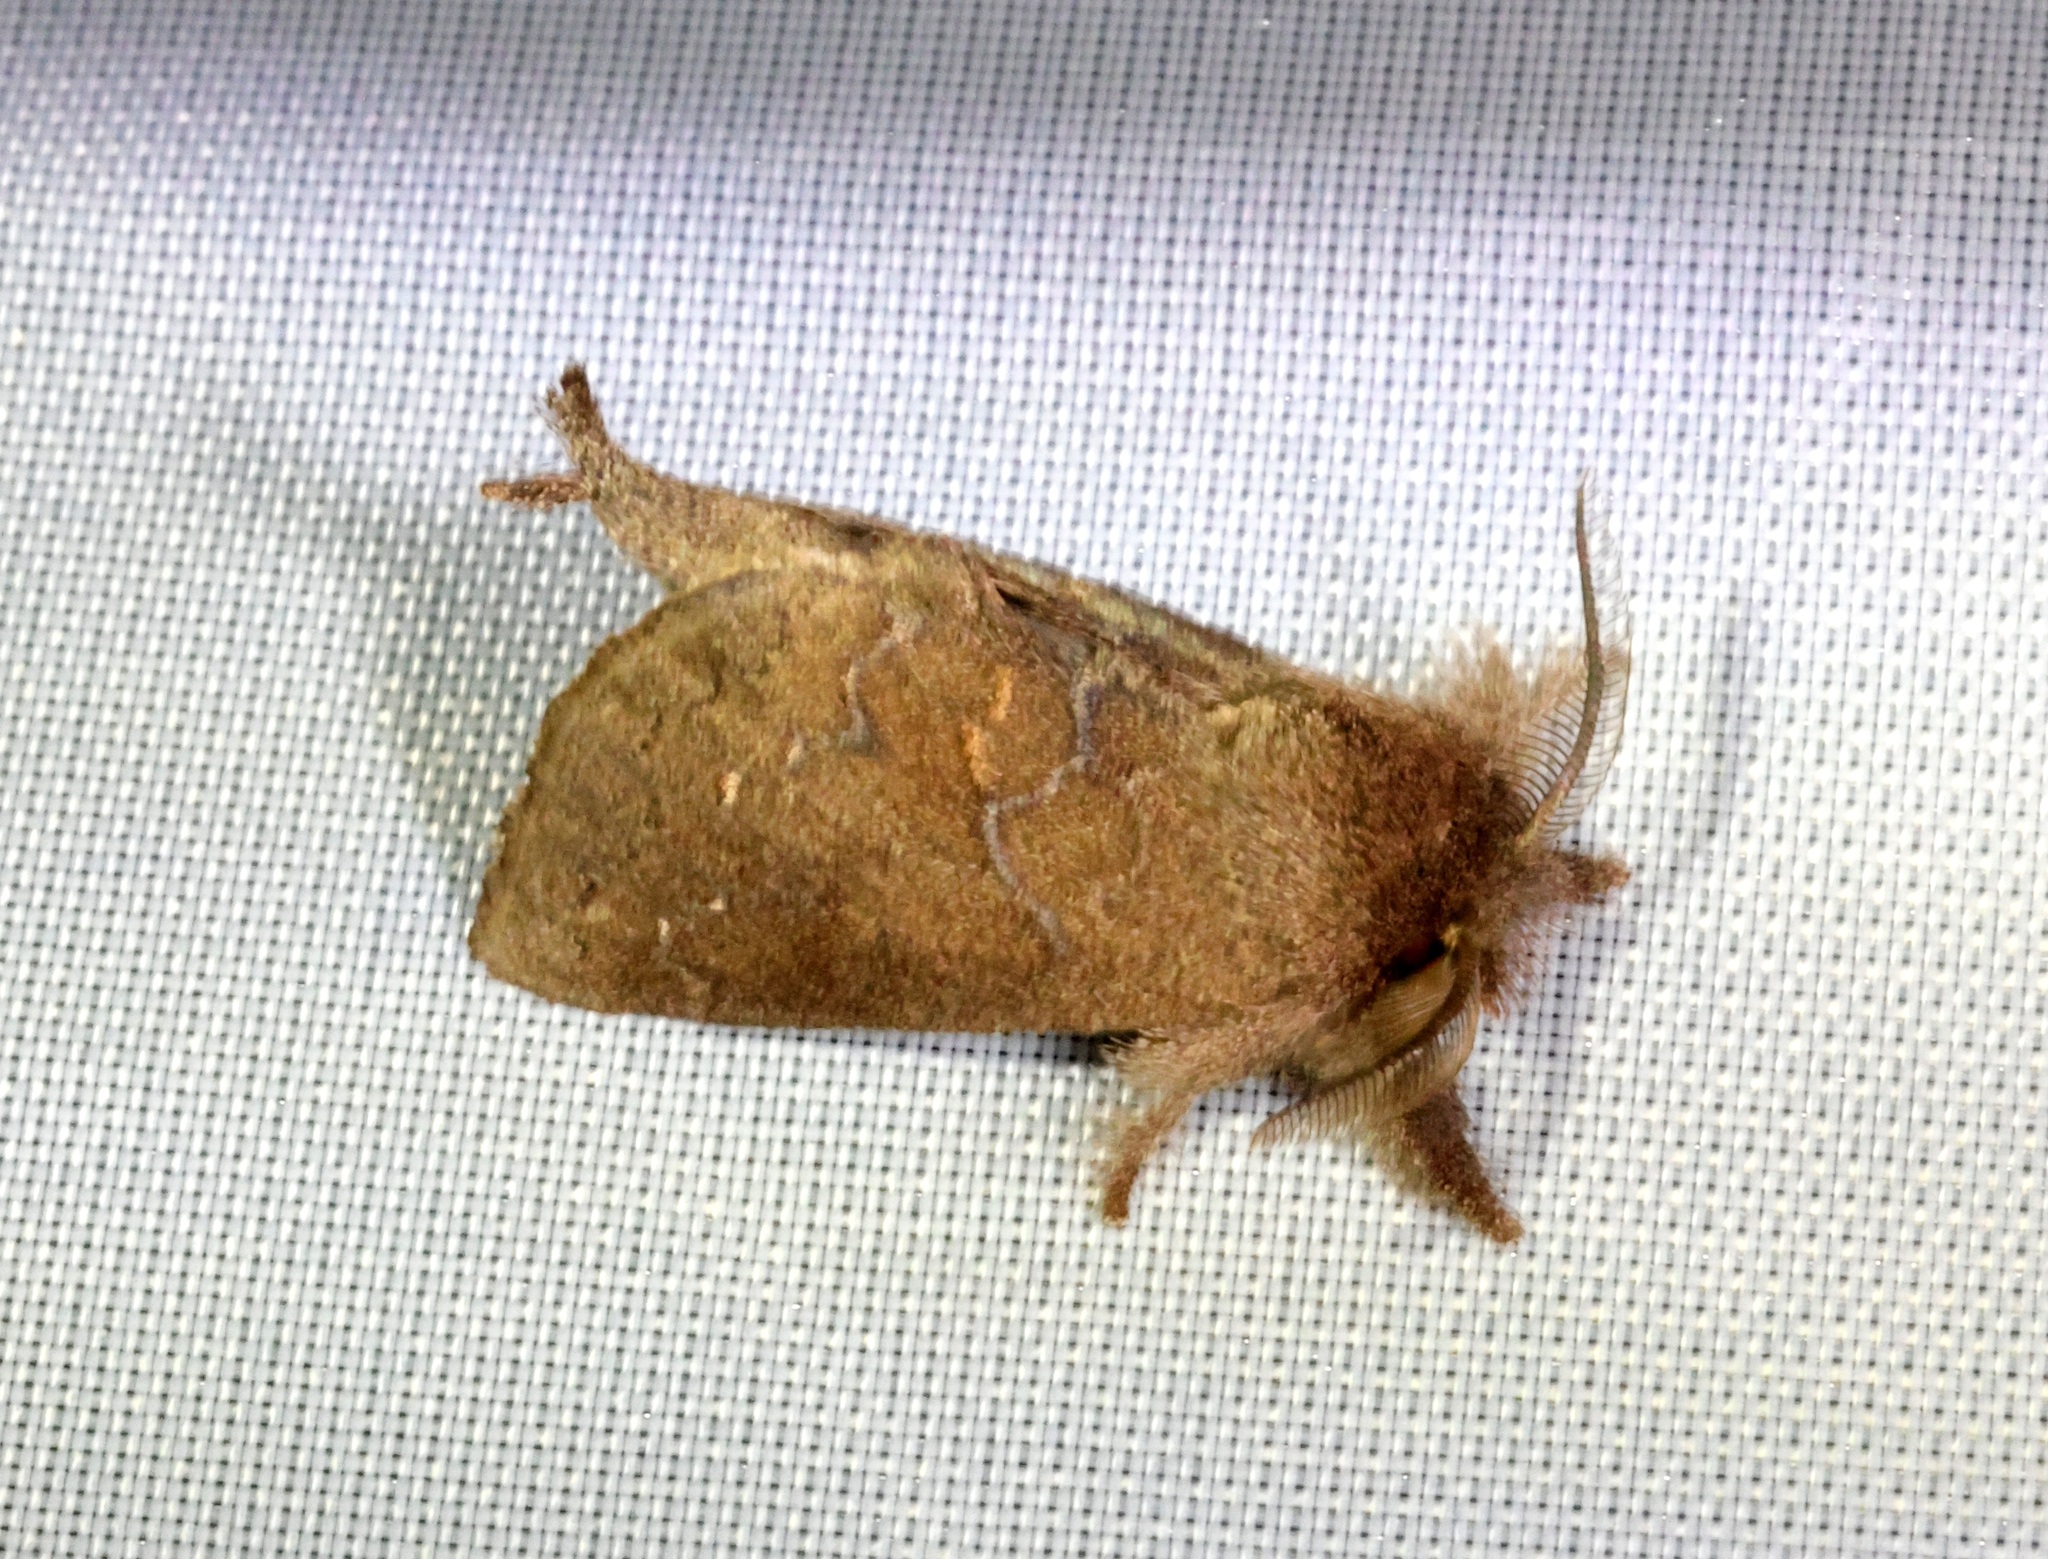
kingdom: Animalia
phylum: Arthropoda
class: Insecta
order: Lepidoptera
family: Notodontidae
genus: Micromelalopha
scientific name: Micromelalopha baibarana
